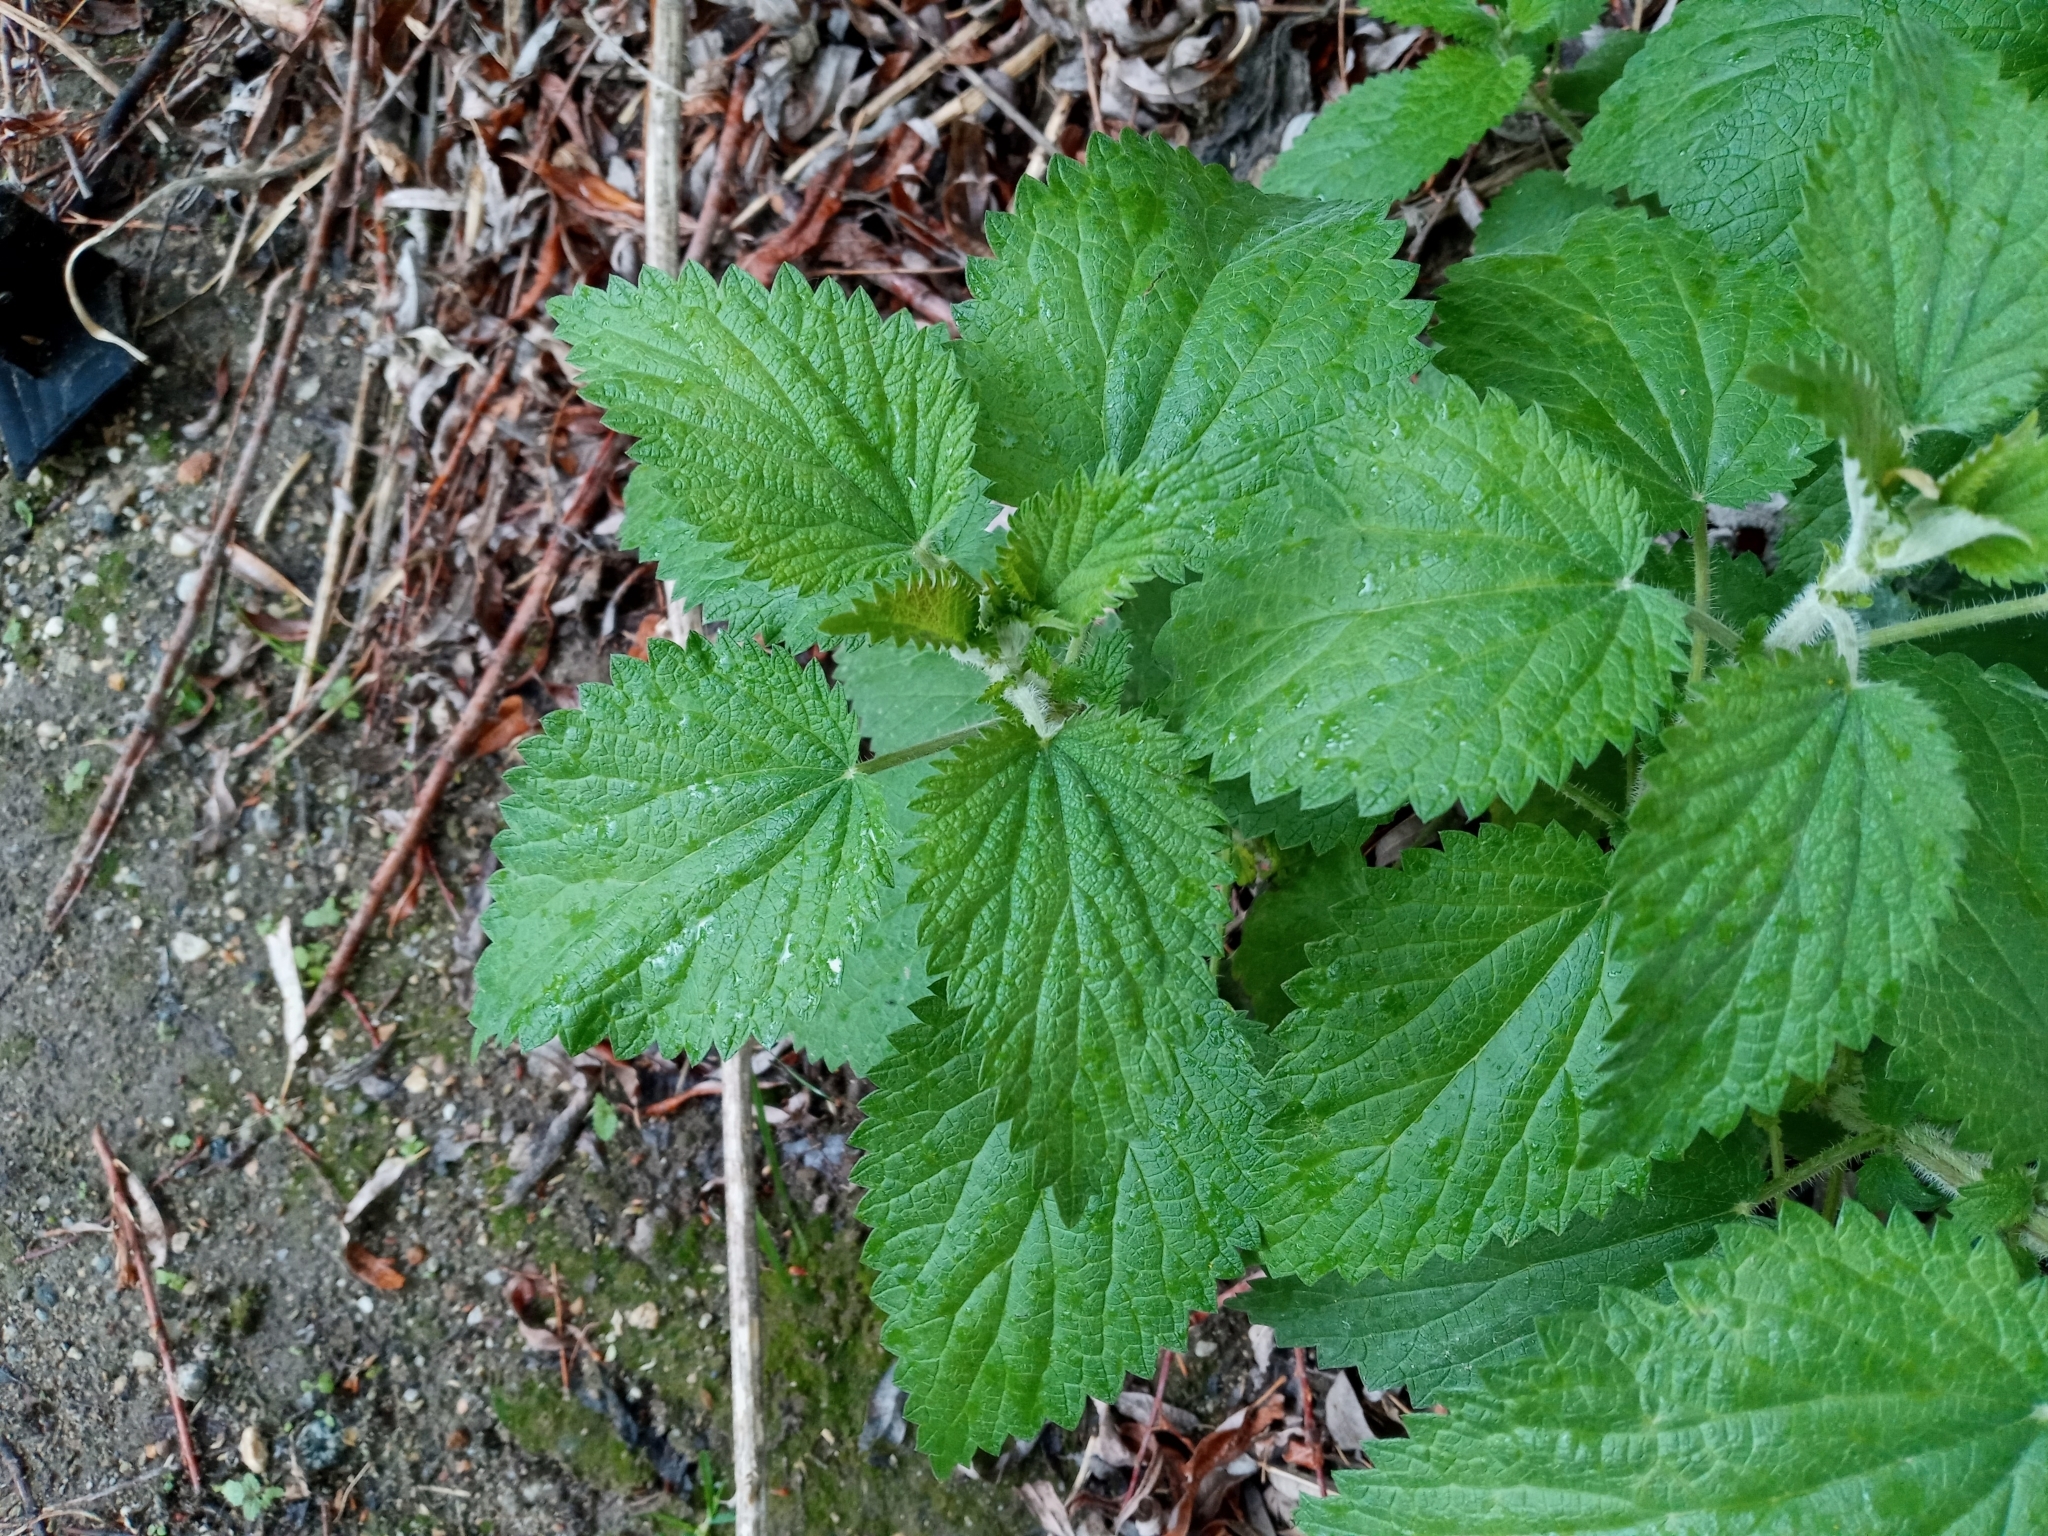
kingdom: Plantae
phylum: Tracheophyta
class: Magnoliopsida
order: Rosales
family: Urticaceae
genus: Urtica
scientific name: Urtica dioica
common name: Common nettle
